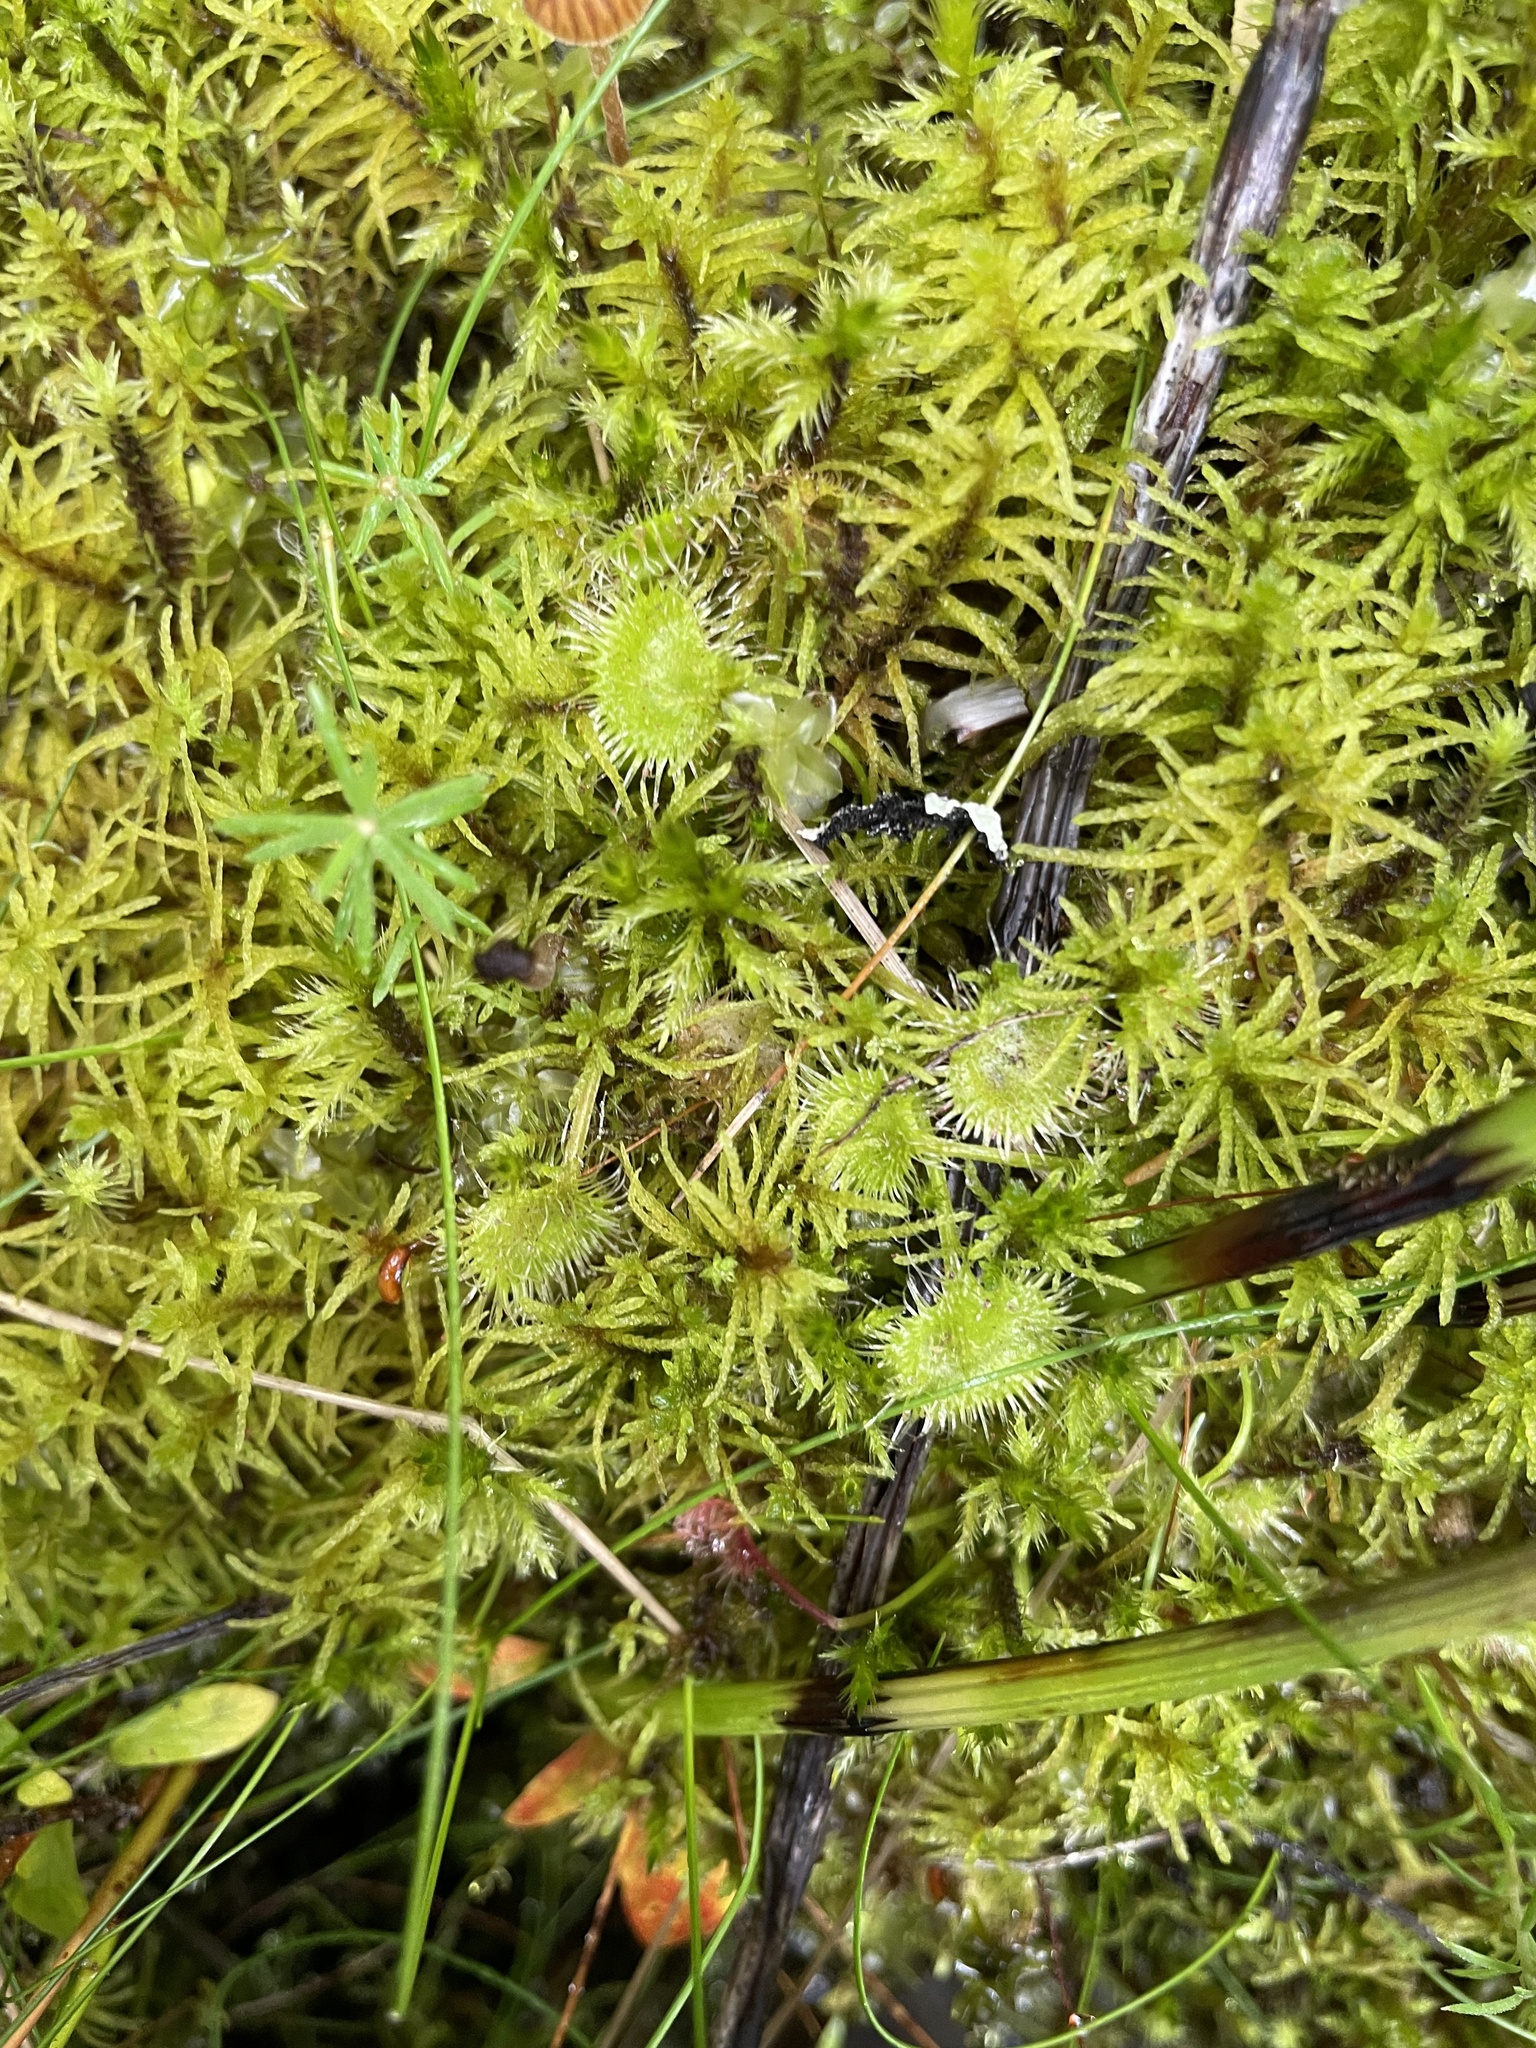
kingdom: Plantae
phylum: Tracheophyta
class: Magnoliopsida
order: Caryophyllales
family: Droseraceae
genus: Drosera
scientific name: Drosera rotundifolia
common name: Round-leaved sundew
